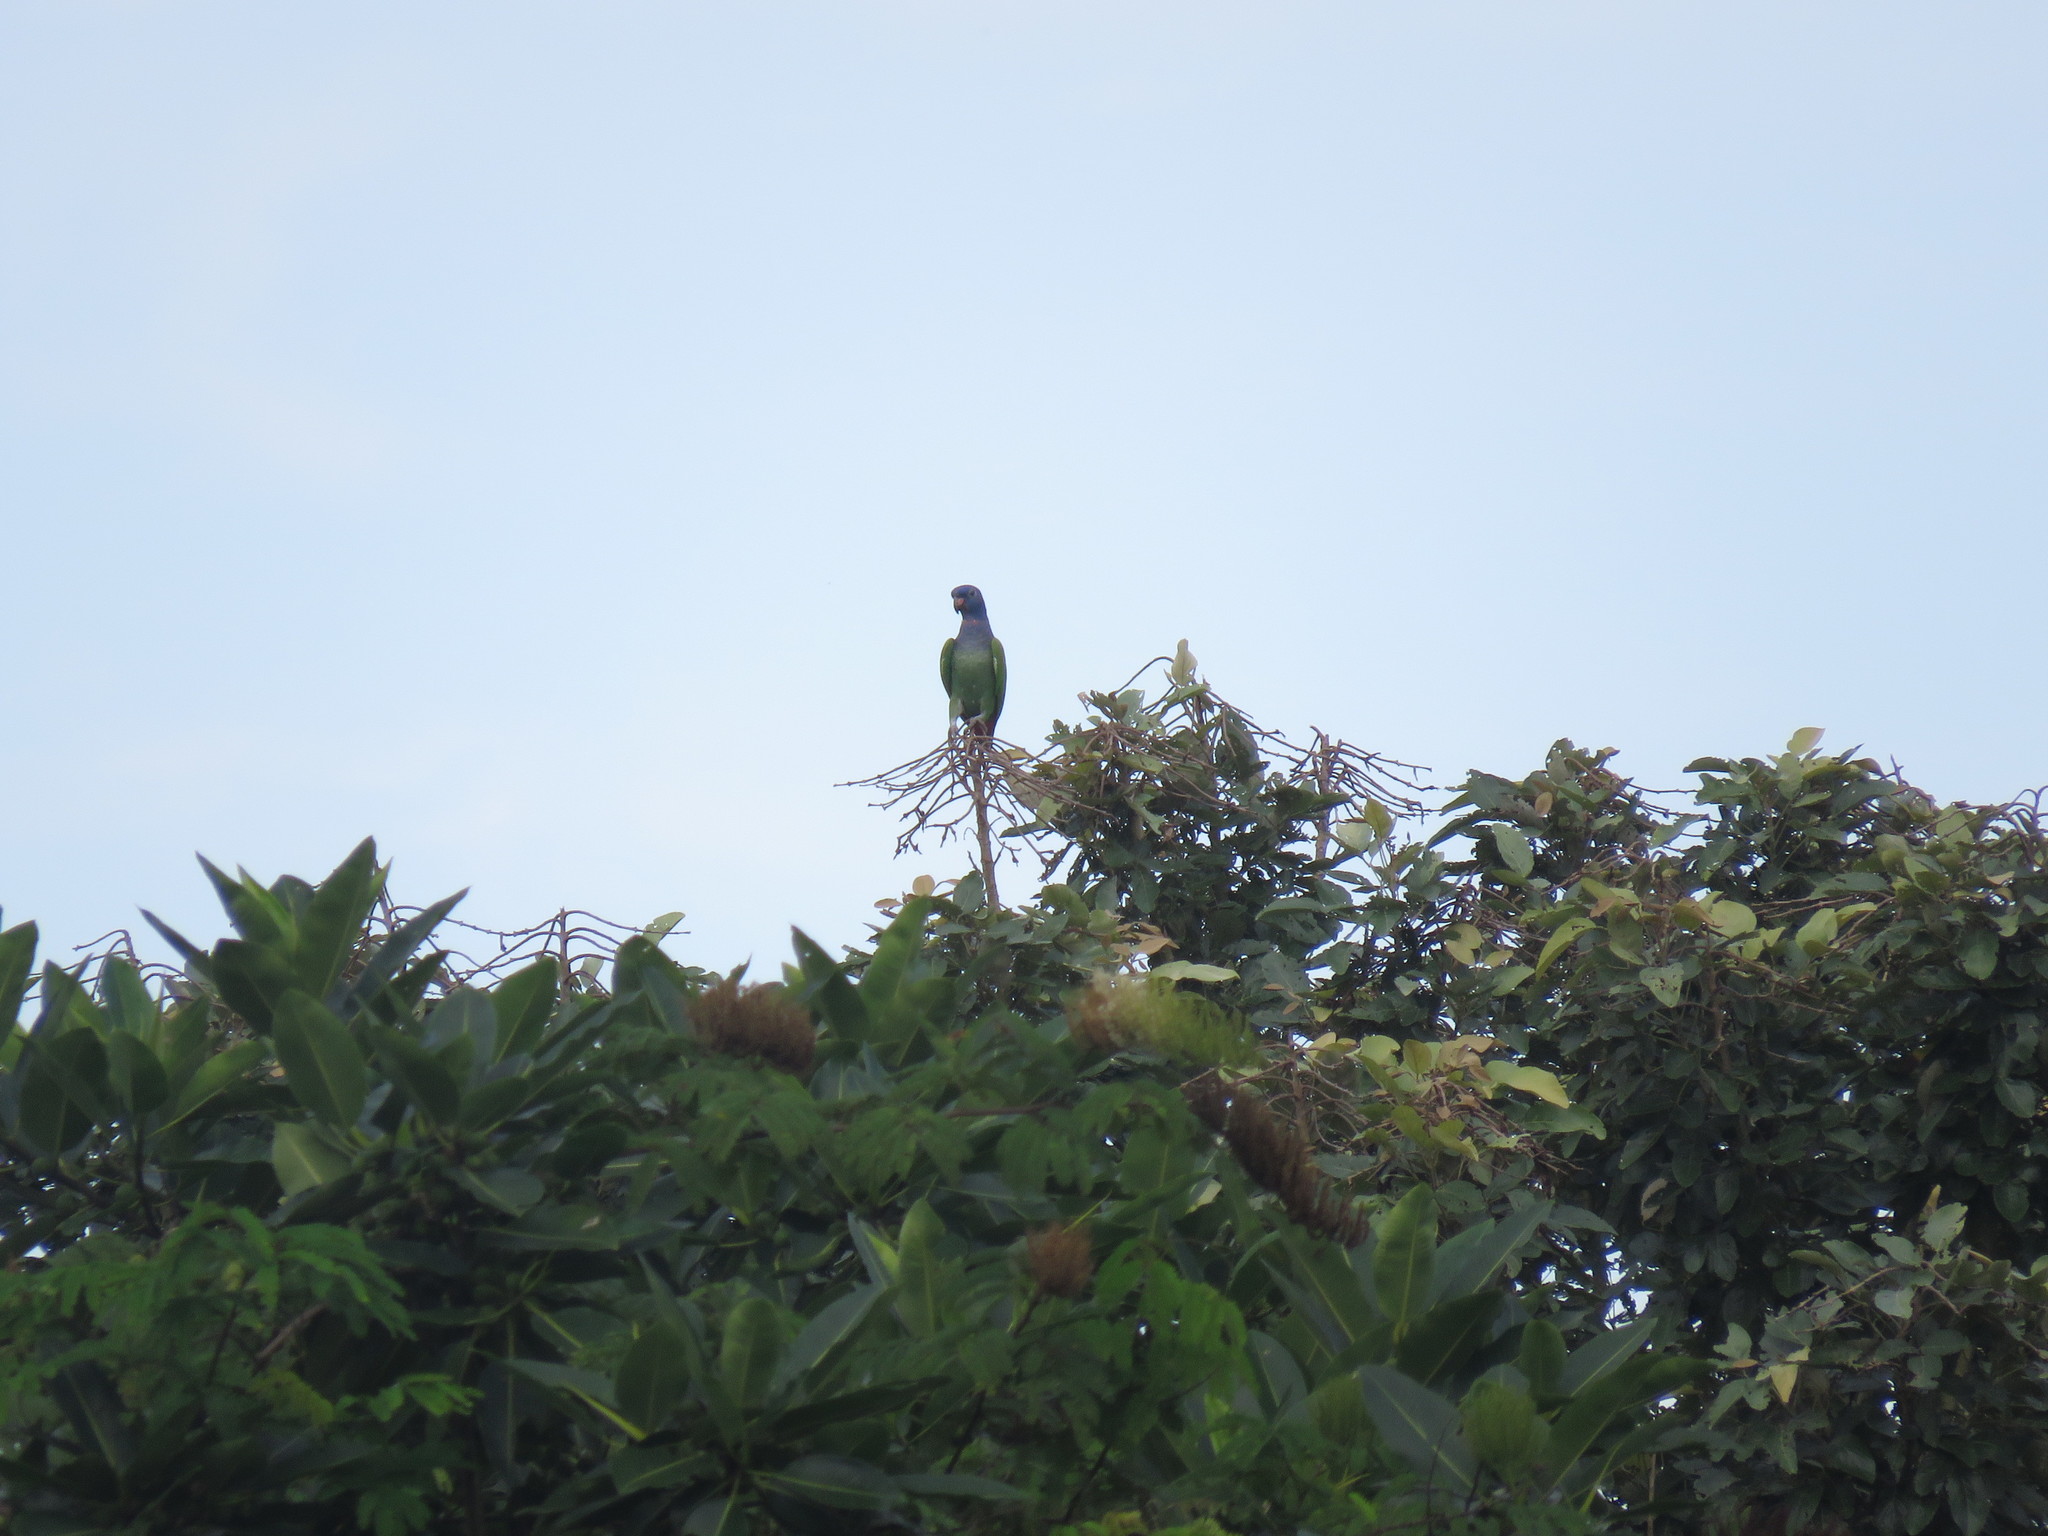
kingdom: Animalia
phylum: Chordata
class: Aves
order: Psittaciformes
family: Psittacidae
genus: Pionus
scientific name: Pionus menstruus
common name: Blue-headed parrot
